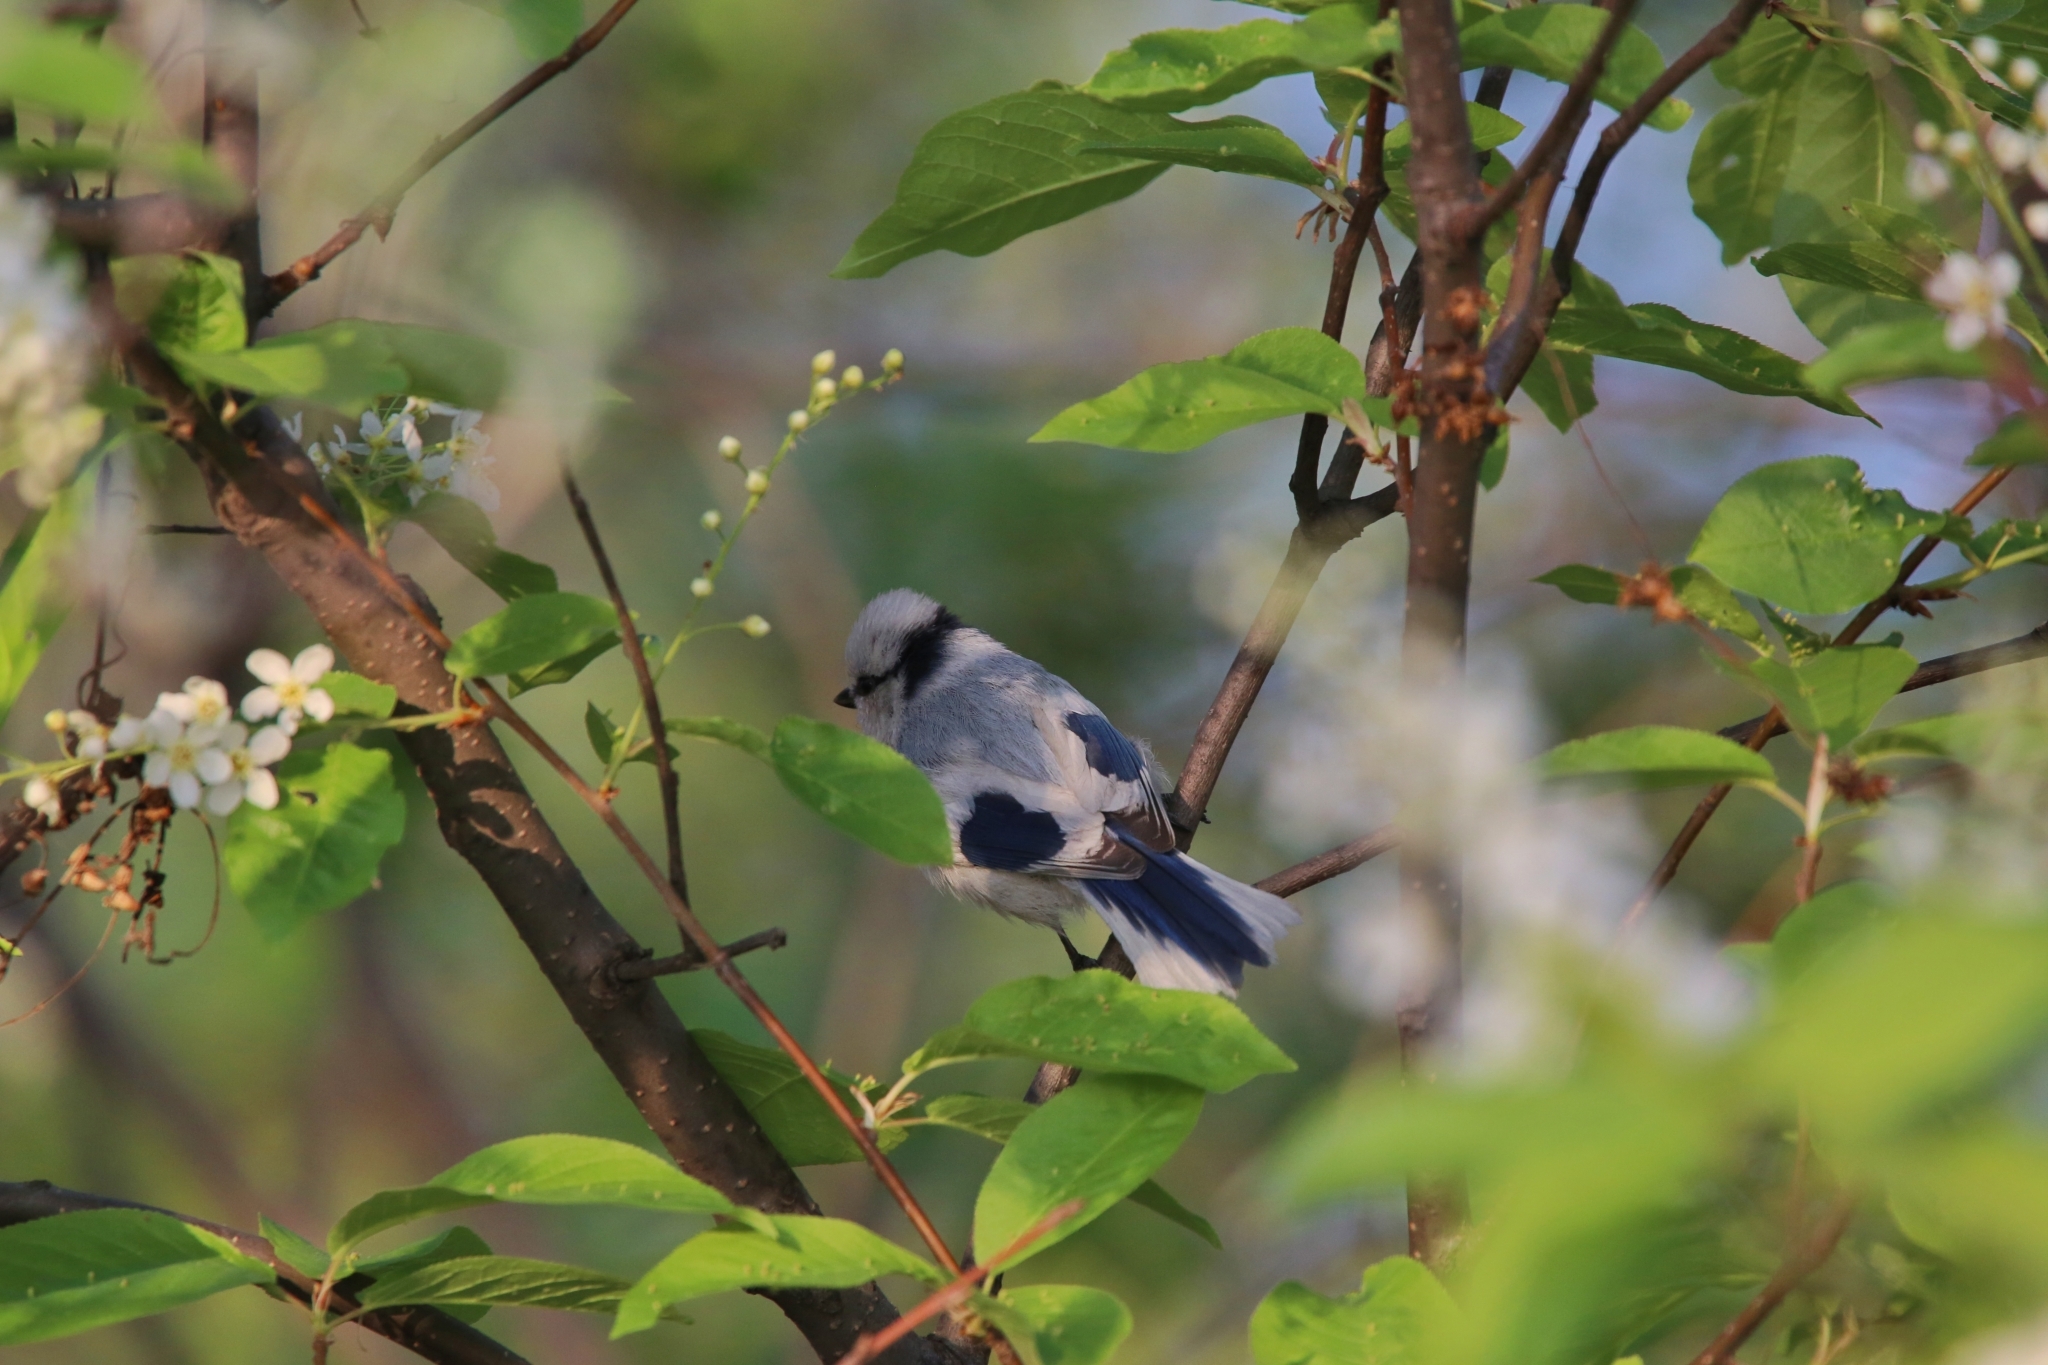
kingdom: Animalia
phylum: Chordata
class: Aves
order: Passeriformes
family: Paridae
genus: Cyanistes
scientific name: Cyanistes cyanus
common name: Azure tit
